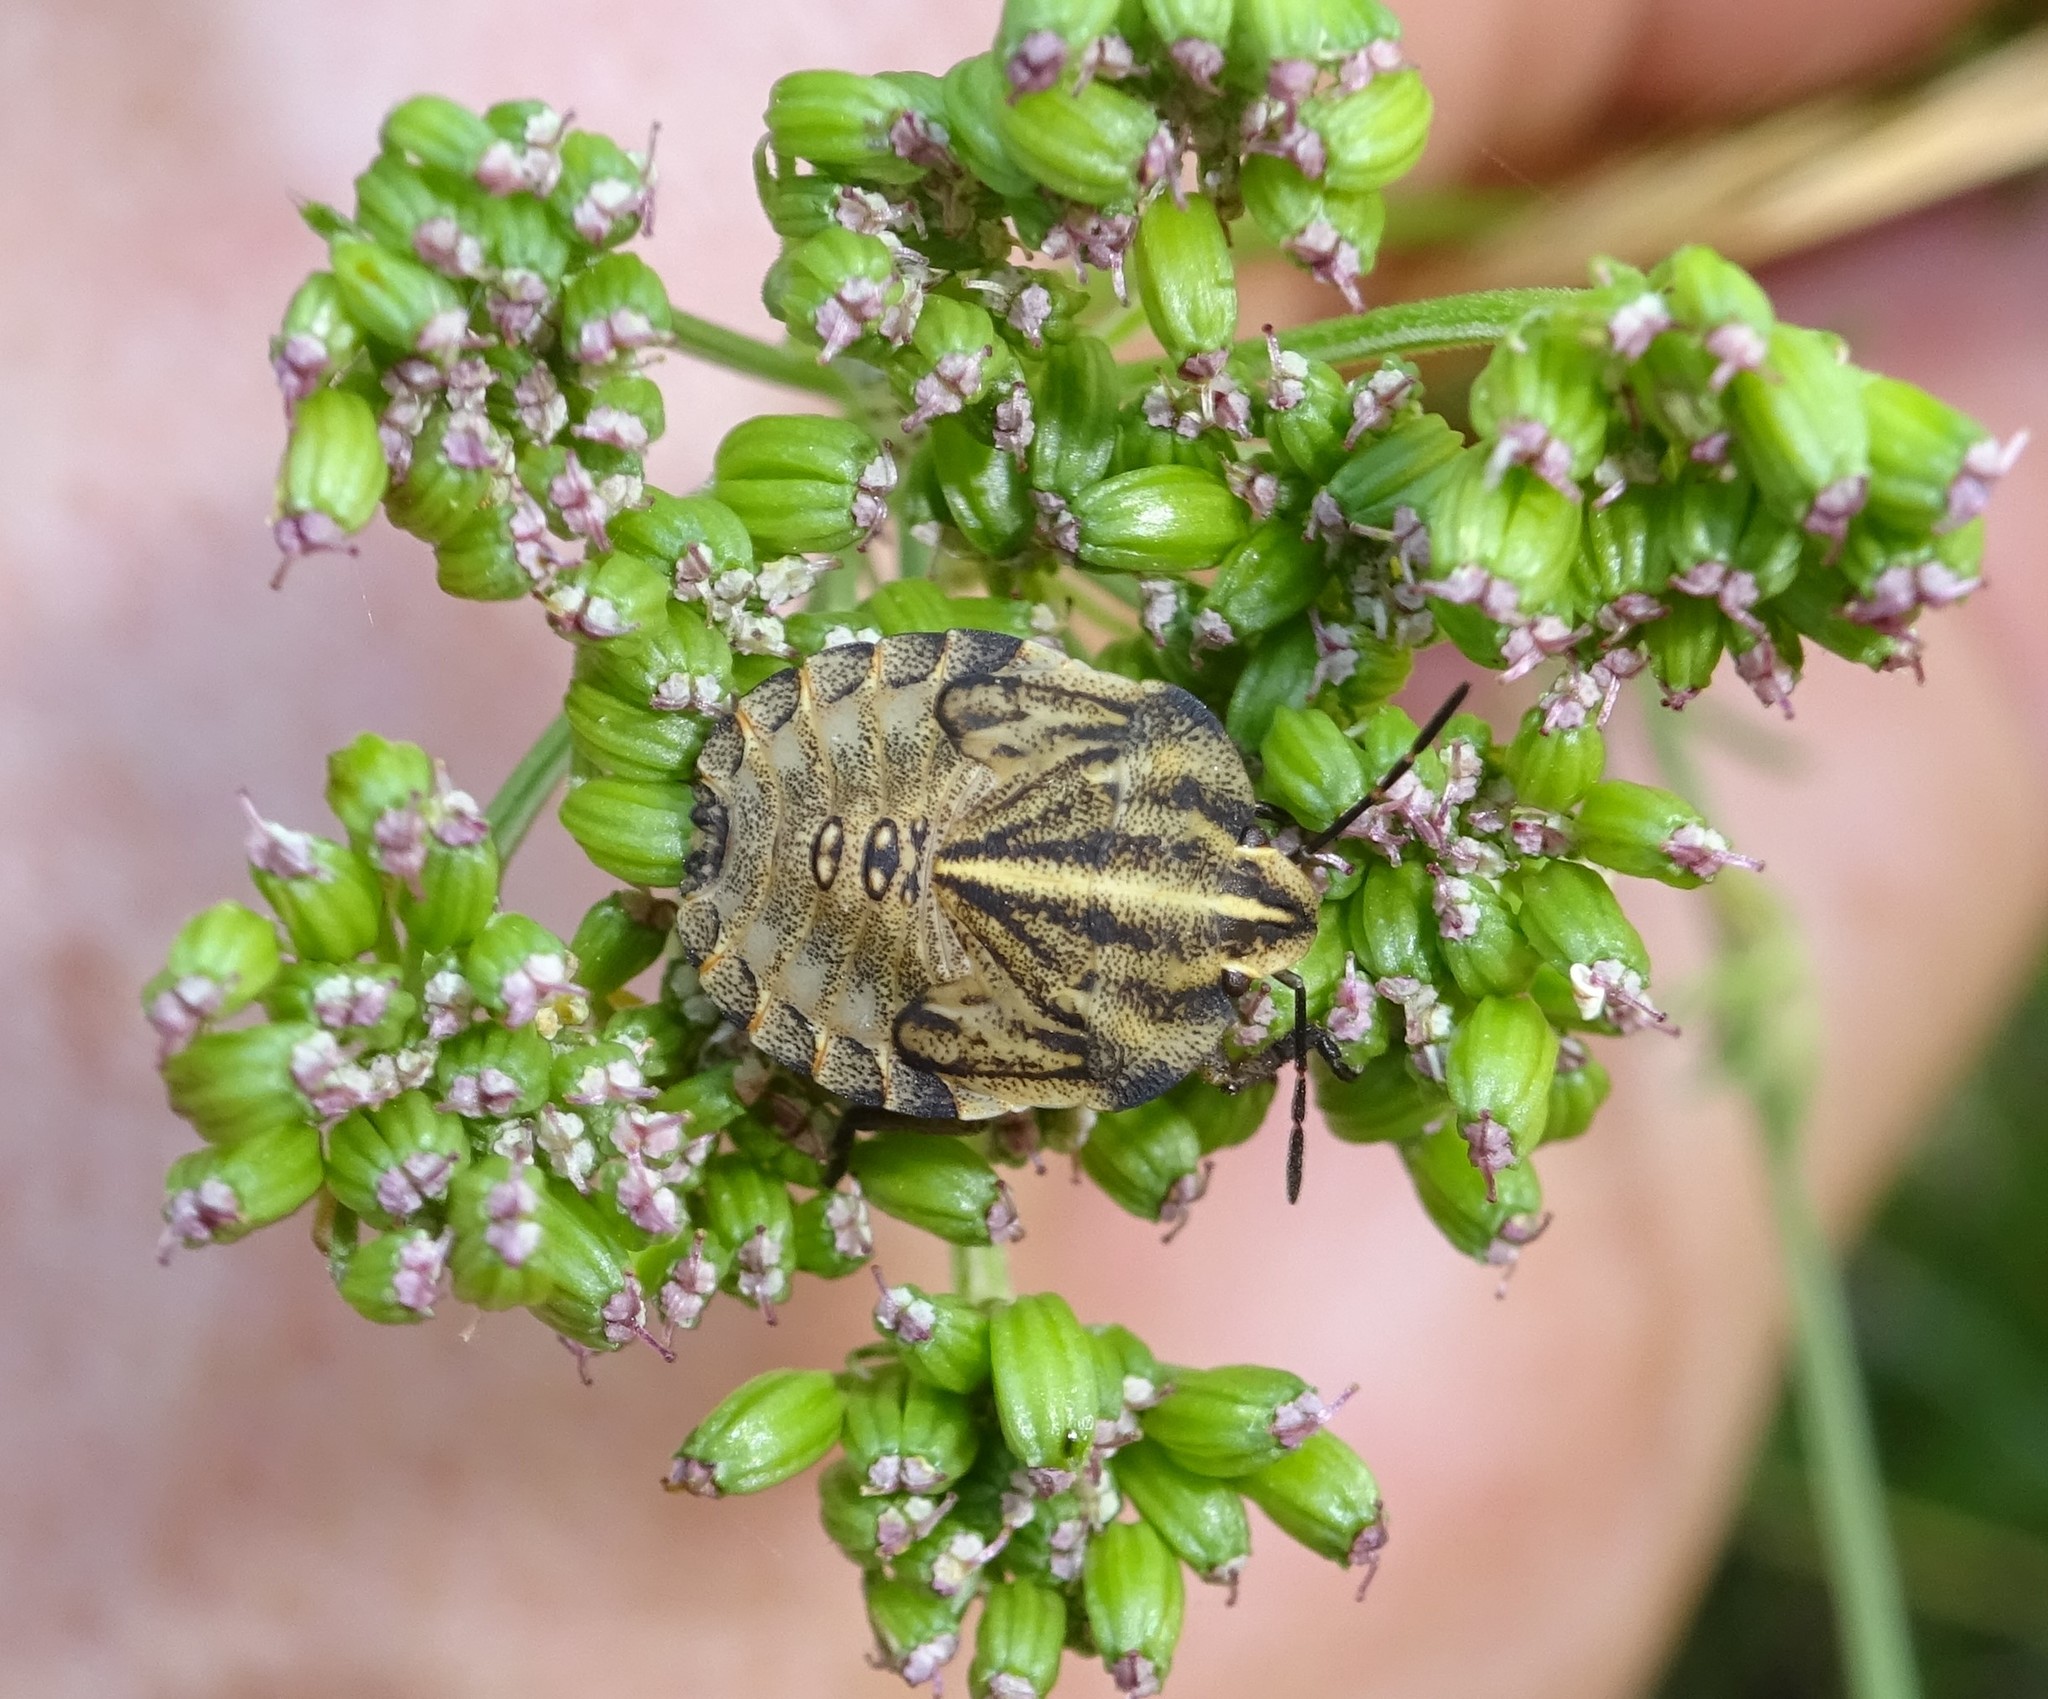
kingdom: Animalia
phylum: Arthropoda
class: Insecta
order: Hemiptera
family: Pentatomidae
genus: Graphosoma
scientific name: Graphosoma italicum
